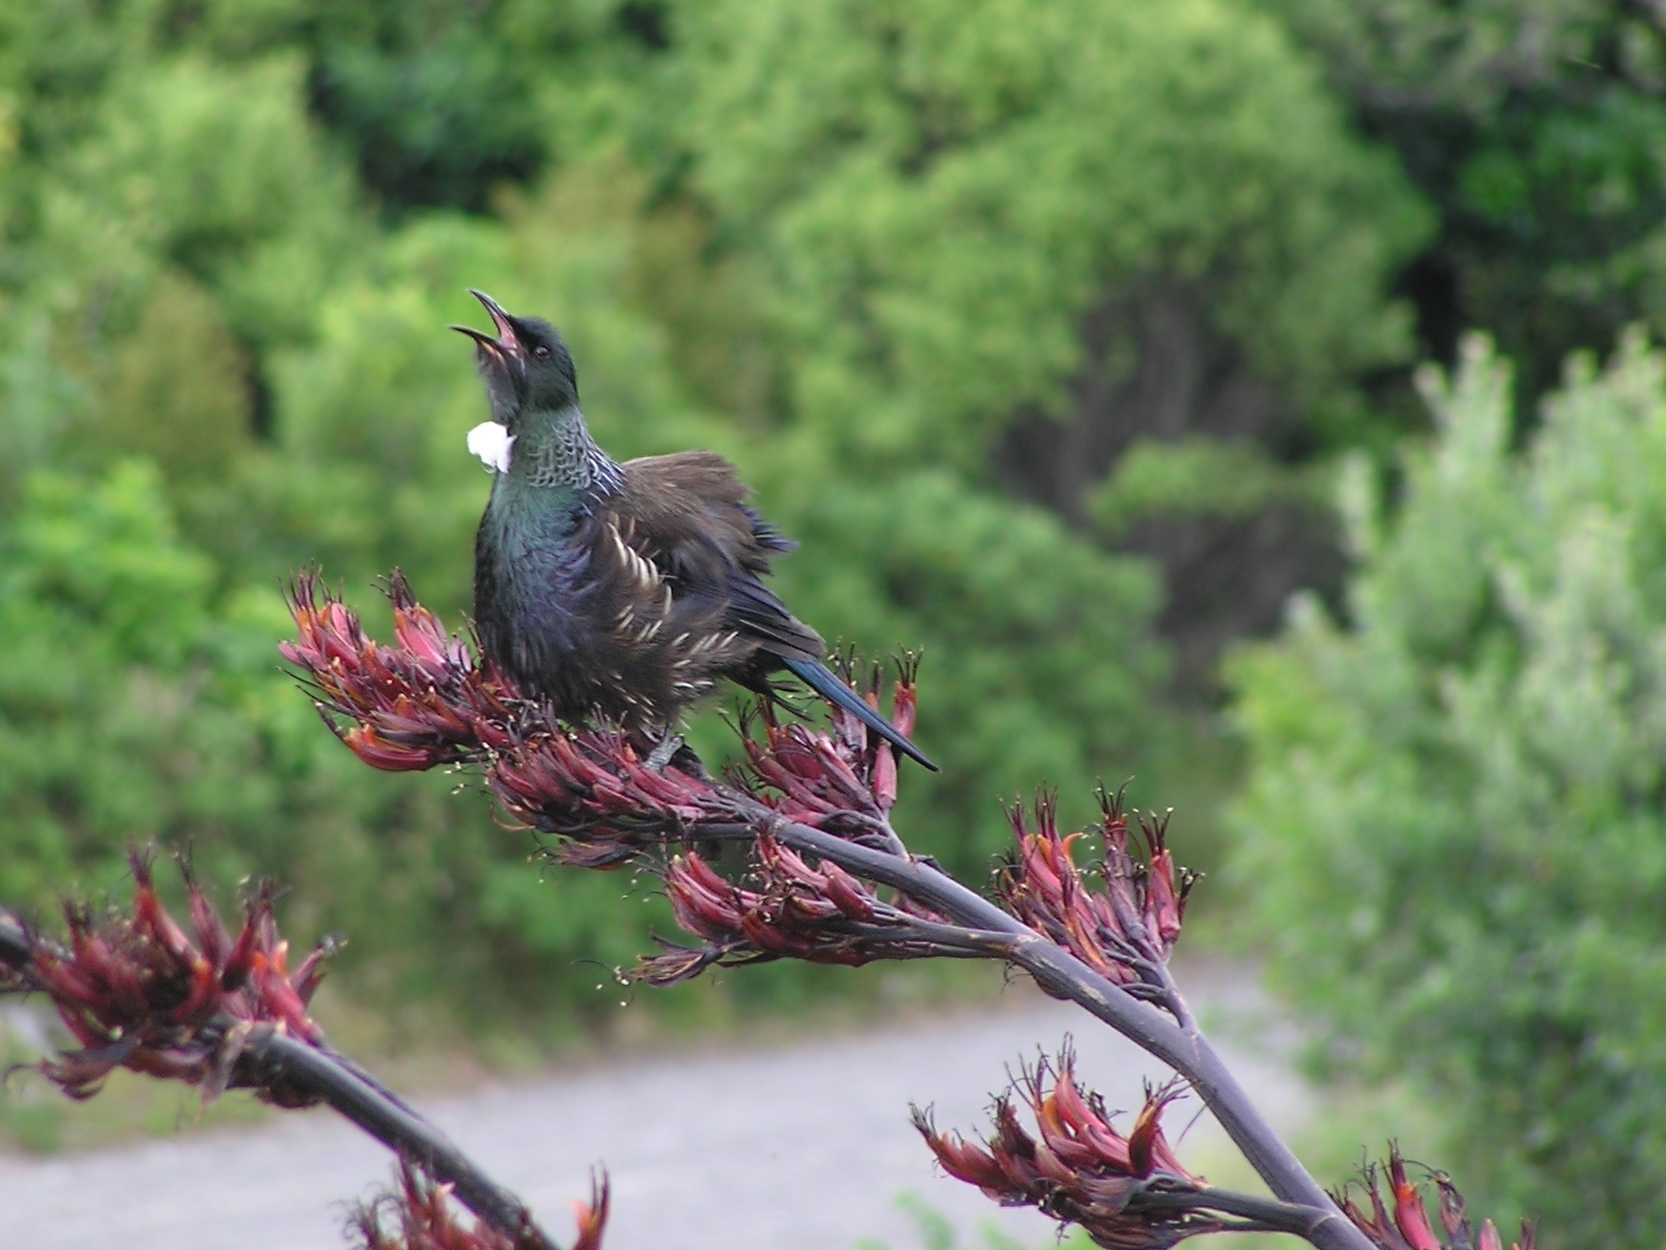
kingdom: Animalia
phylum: Chordata
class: Aves
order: Passeriformes
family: Meliphagidae
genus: Prosthemadera
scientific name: Prosthemadera novaeseelandiae
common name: Tui
